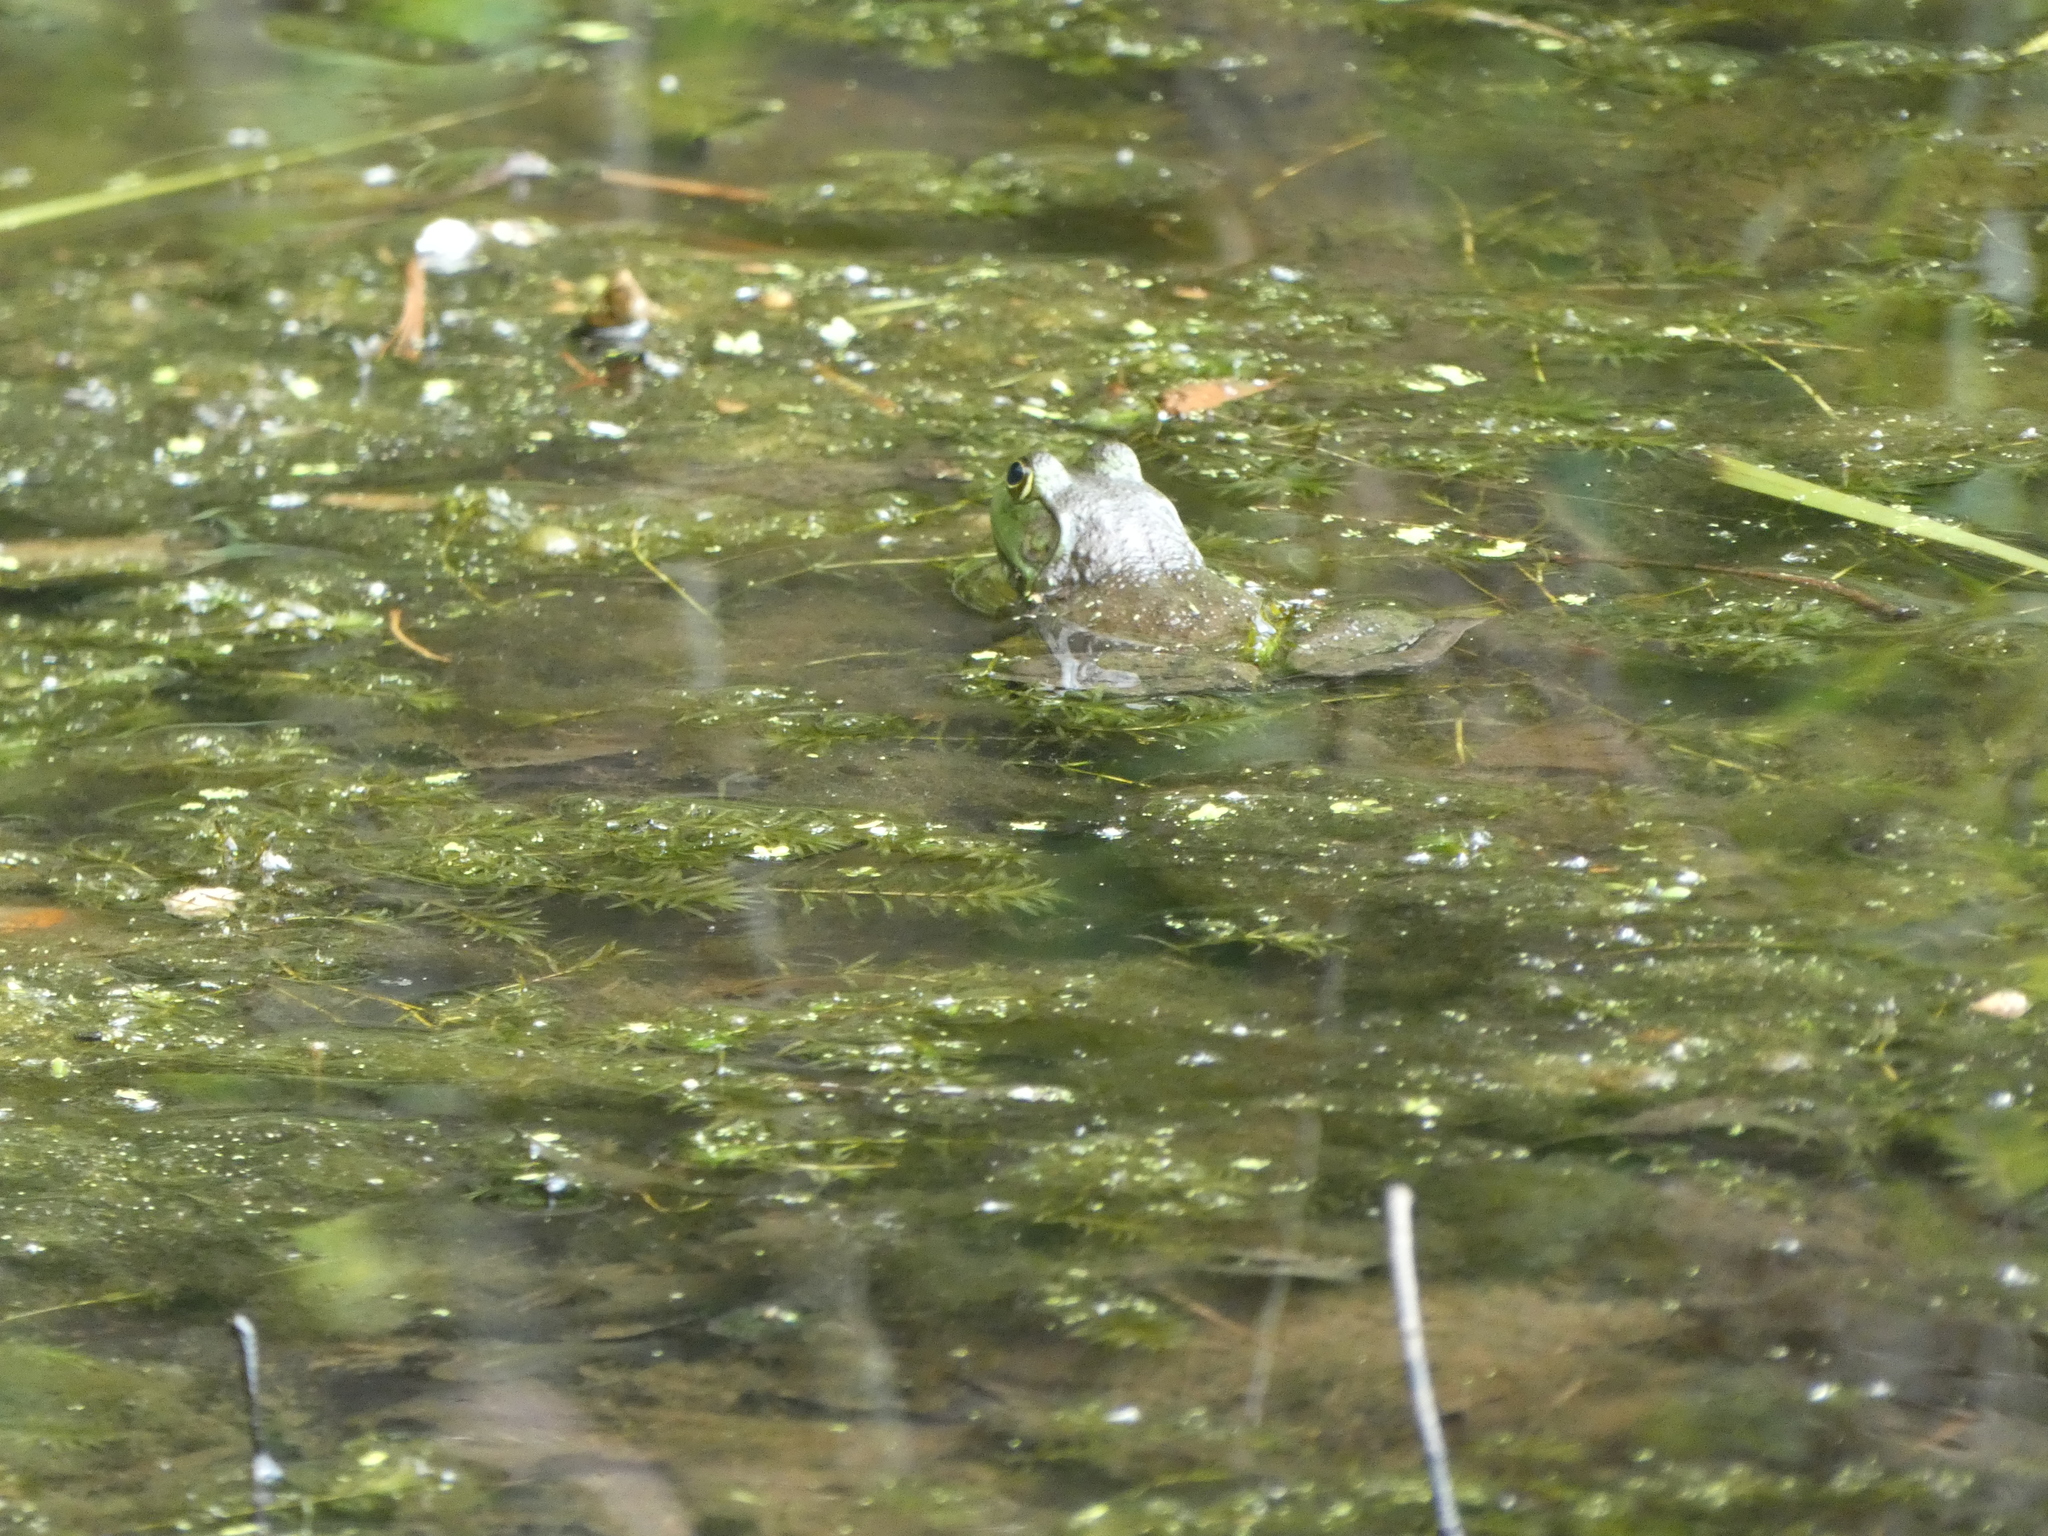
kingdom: Animalia
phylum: Chordata
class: Amphibia
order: Anura
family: Ranidae
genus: Lithobates
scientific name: Lithobates catesbeianus
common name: American bullfrog
